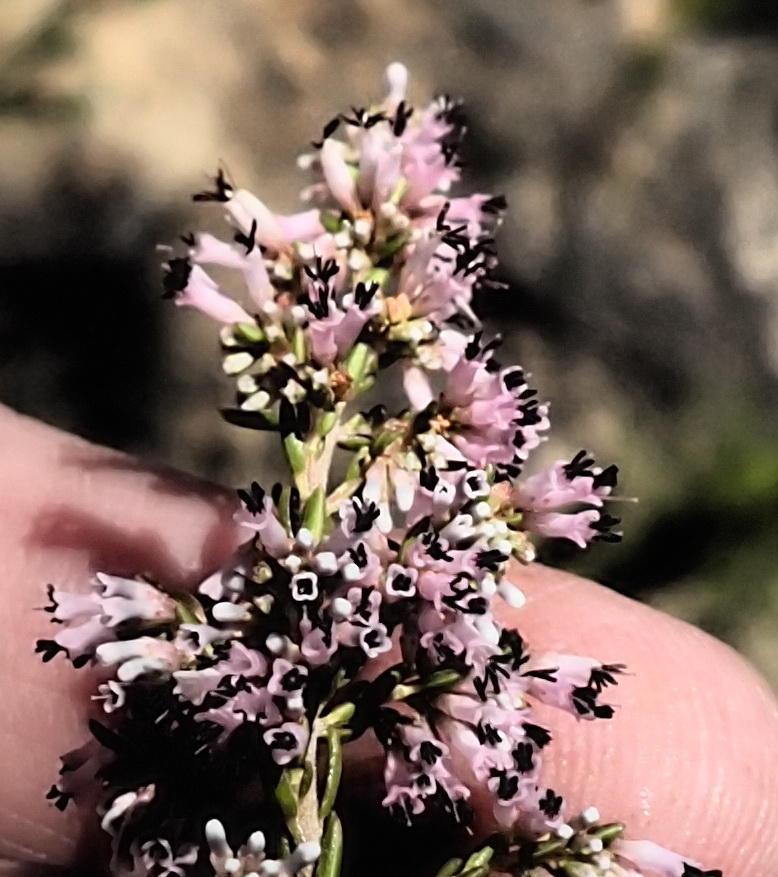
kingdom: Plantae
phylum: Tracheophyta
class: Magnoliopsida
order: Ericales
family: Ericaceae
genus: Erica
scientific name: Erica uberiflora
